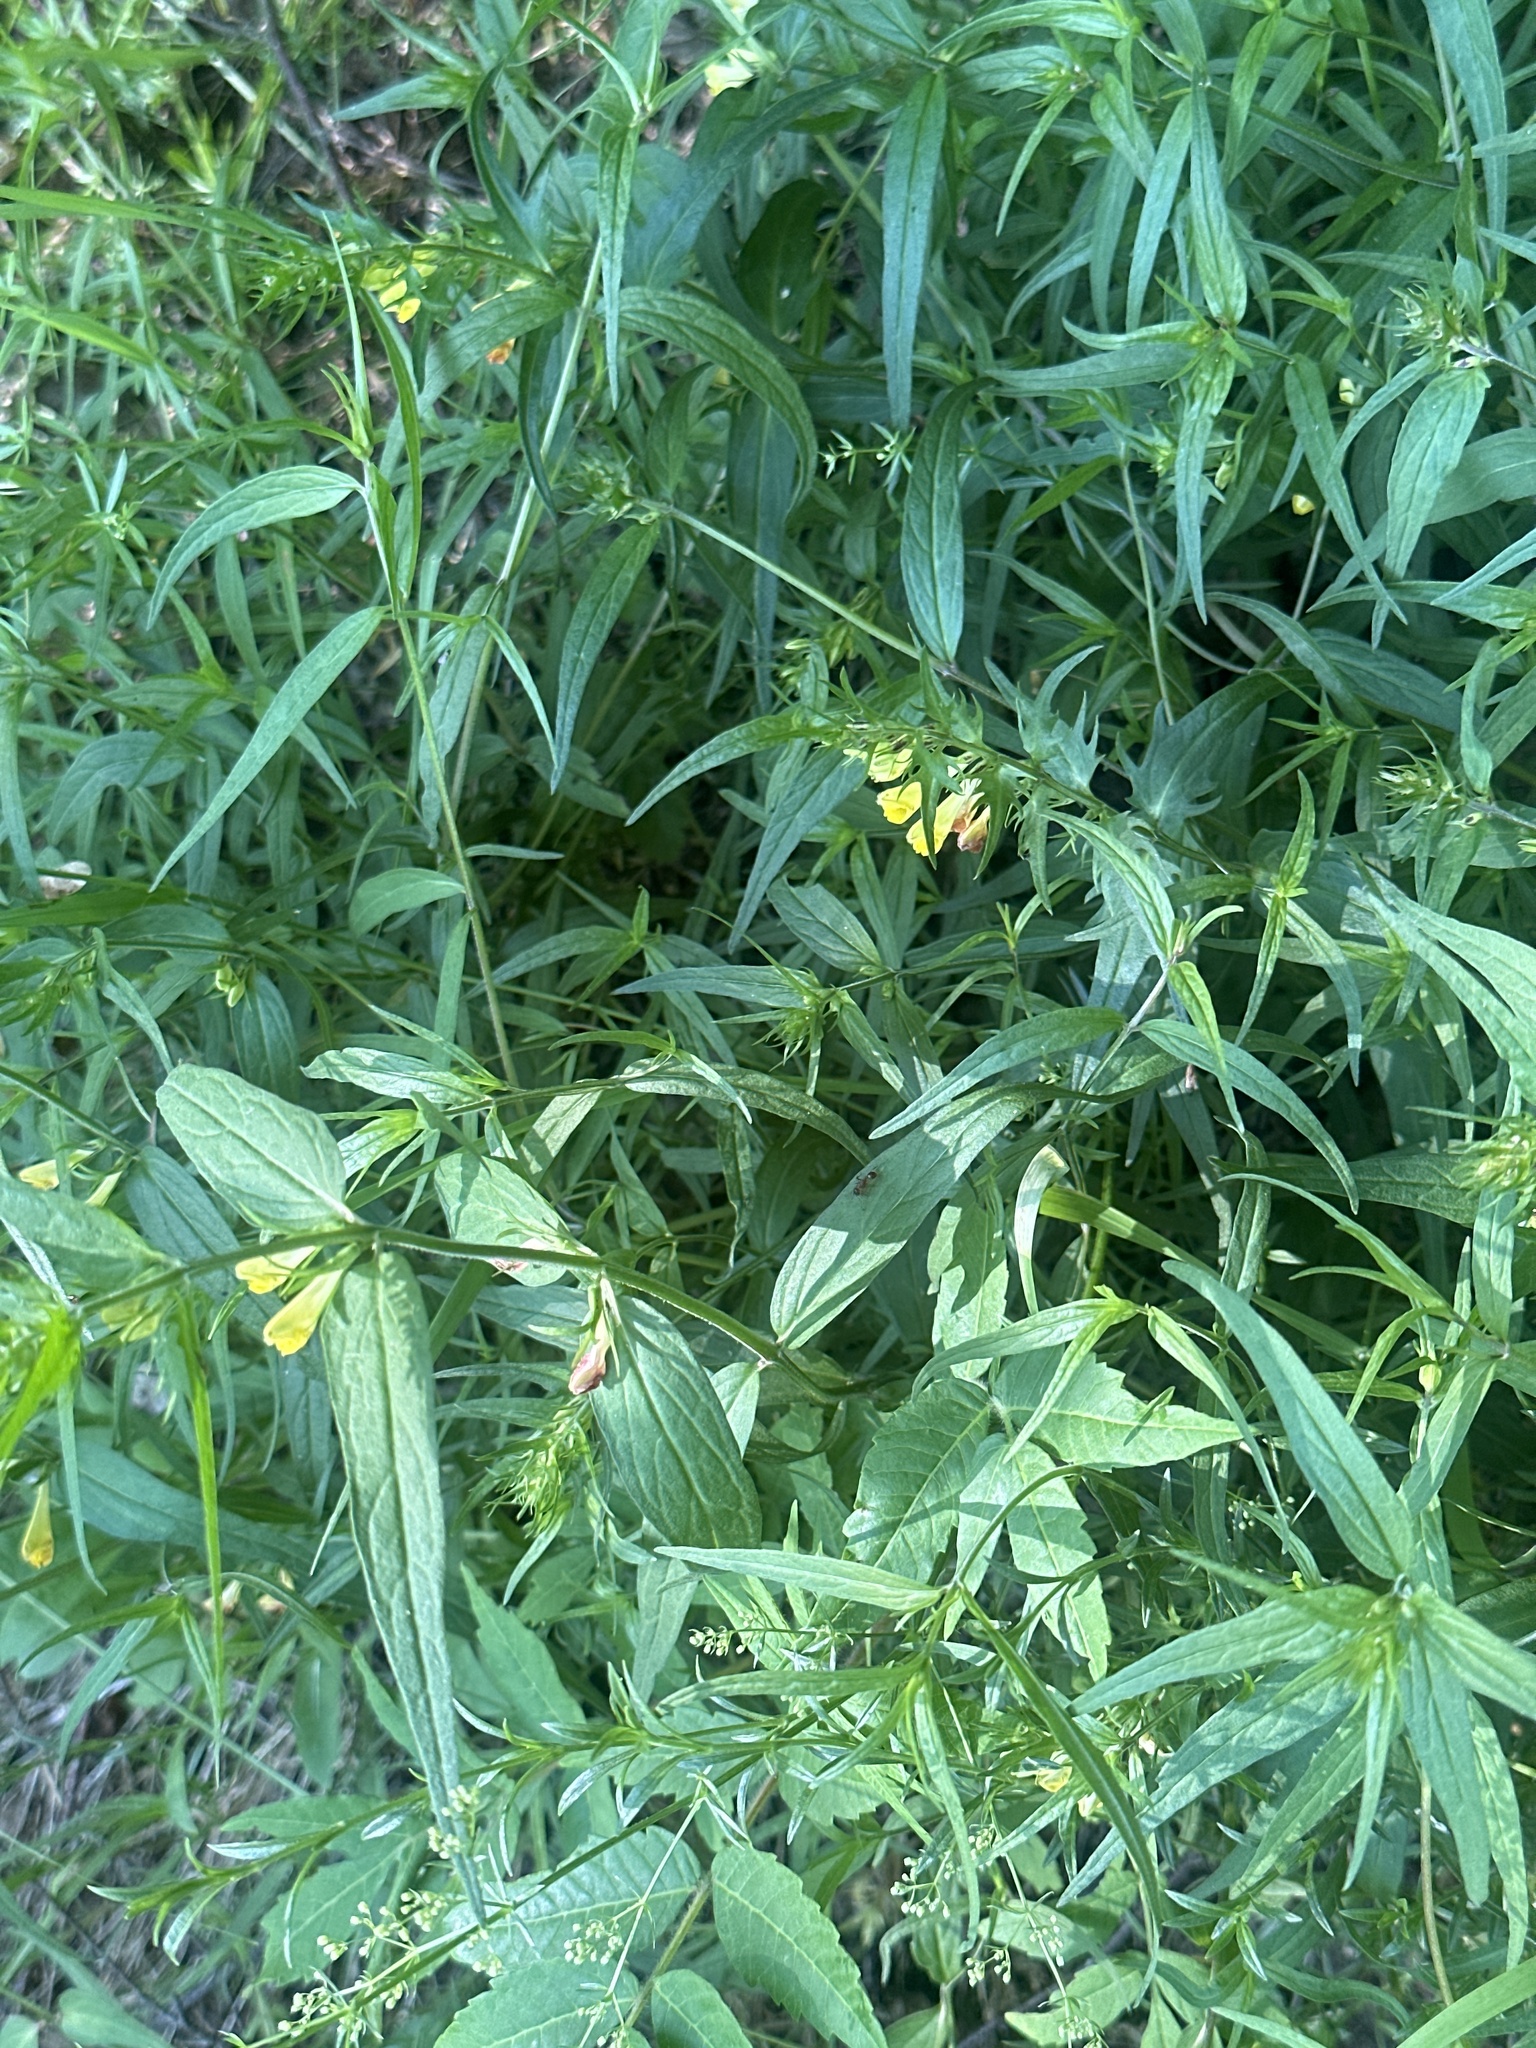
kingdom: Plantae
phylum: Tracheophyta
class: Magnoliopsida
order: Lamiales
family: Orobanchaceae
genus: Melampyrum
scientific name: Melampyrum pratense
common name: Common cow-wheat
